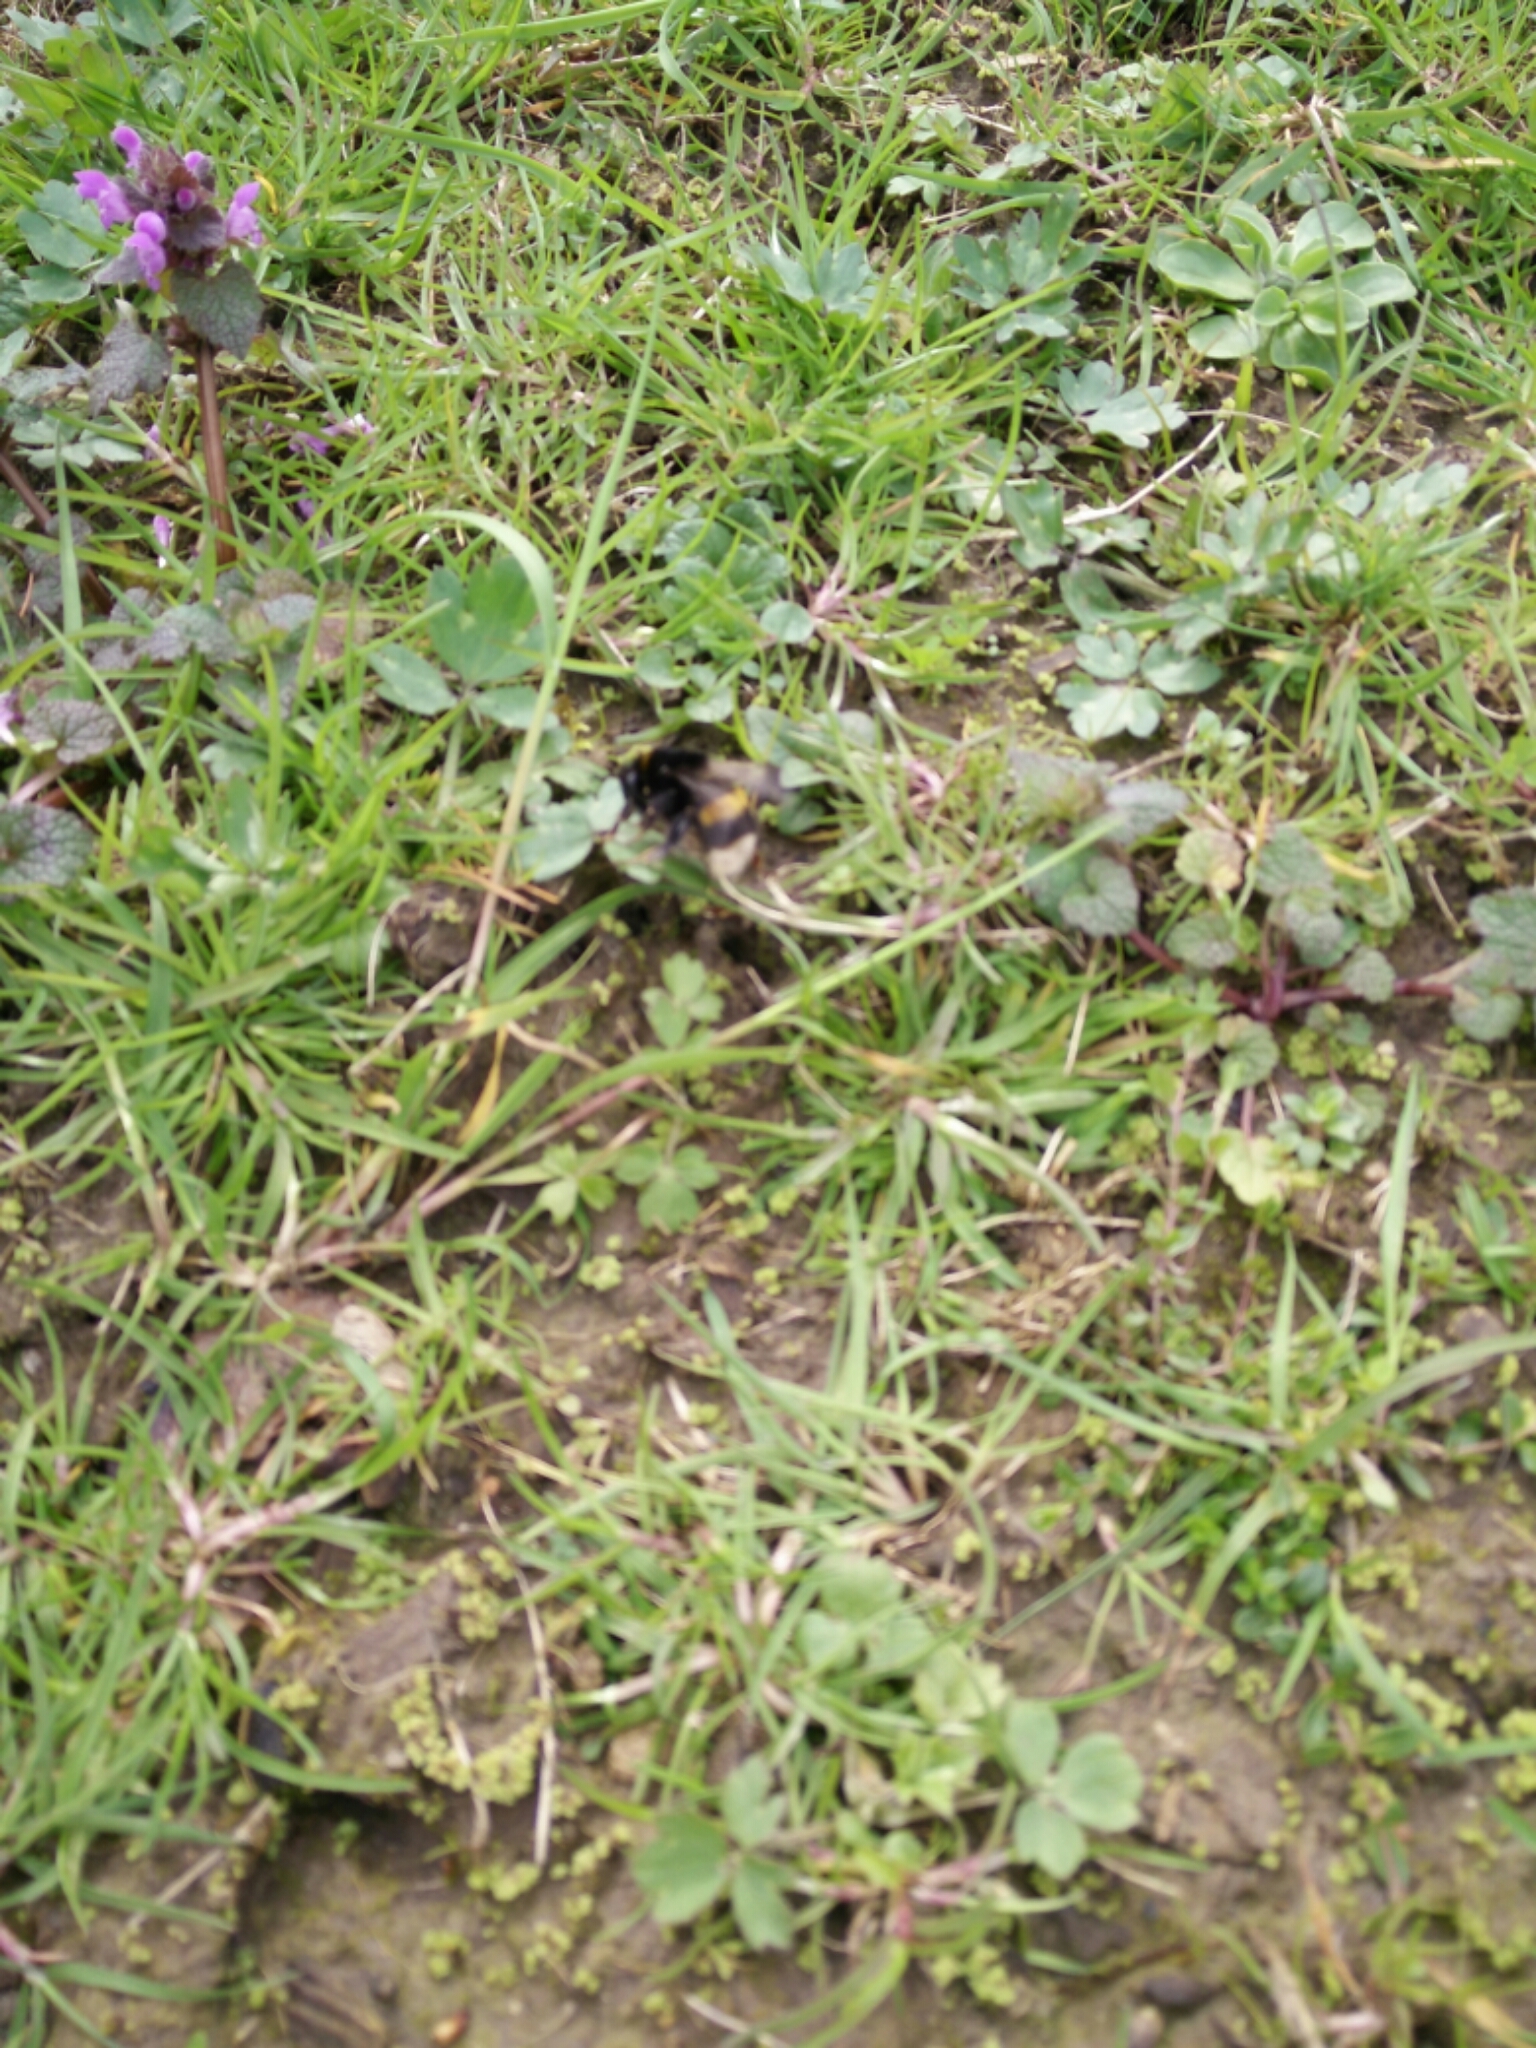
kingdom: Animalia
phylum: Arthropoda
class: Insecta
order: Hymenoptera
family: Apidae
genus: Bombus
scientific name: Bombus terrestris
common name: Buff-tailed bumblebee
